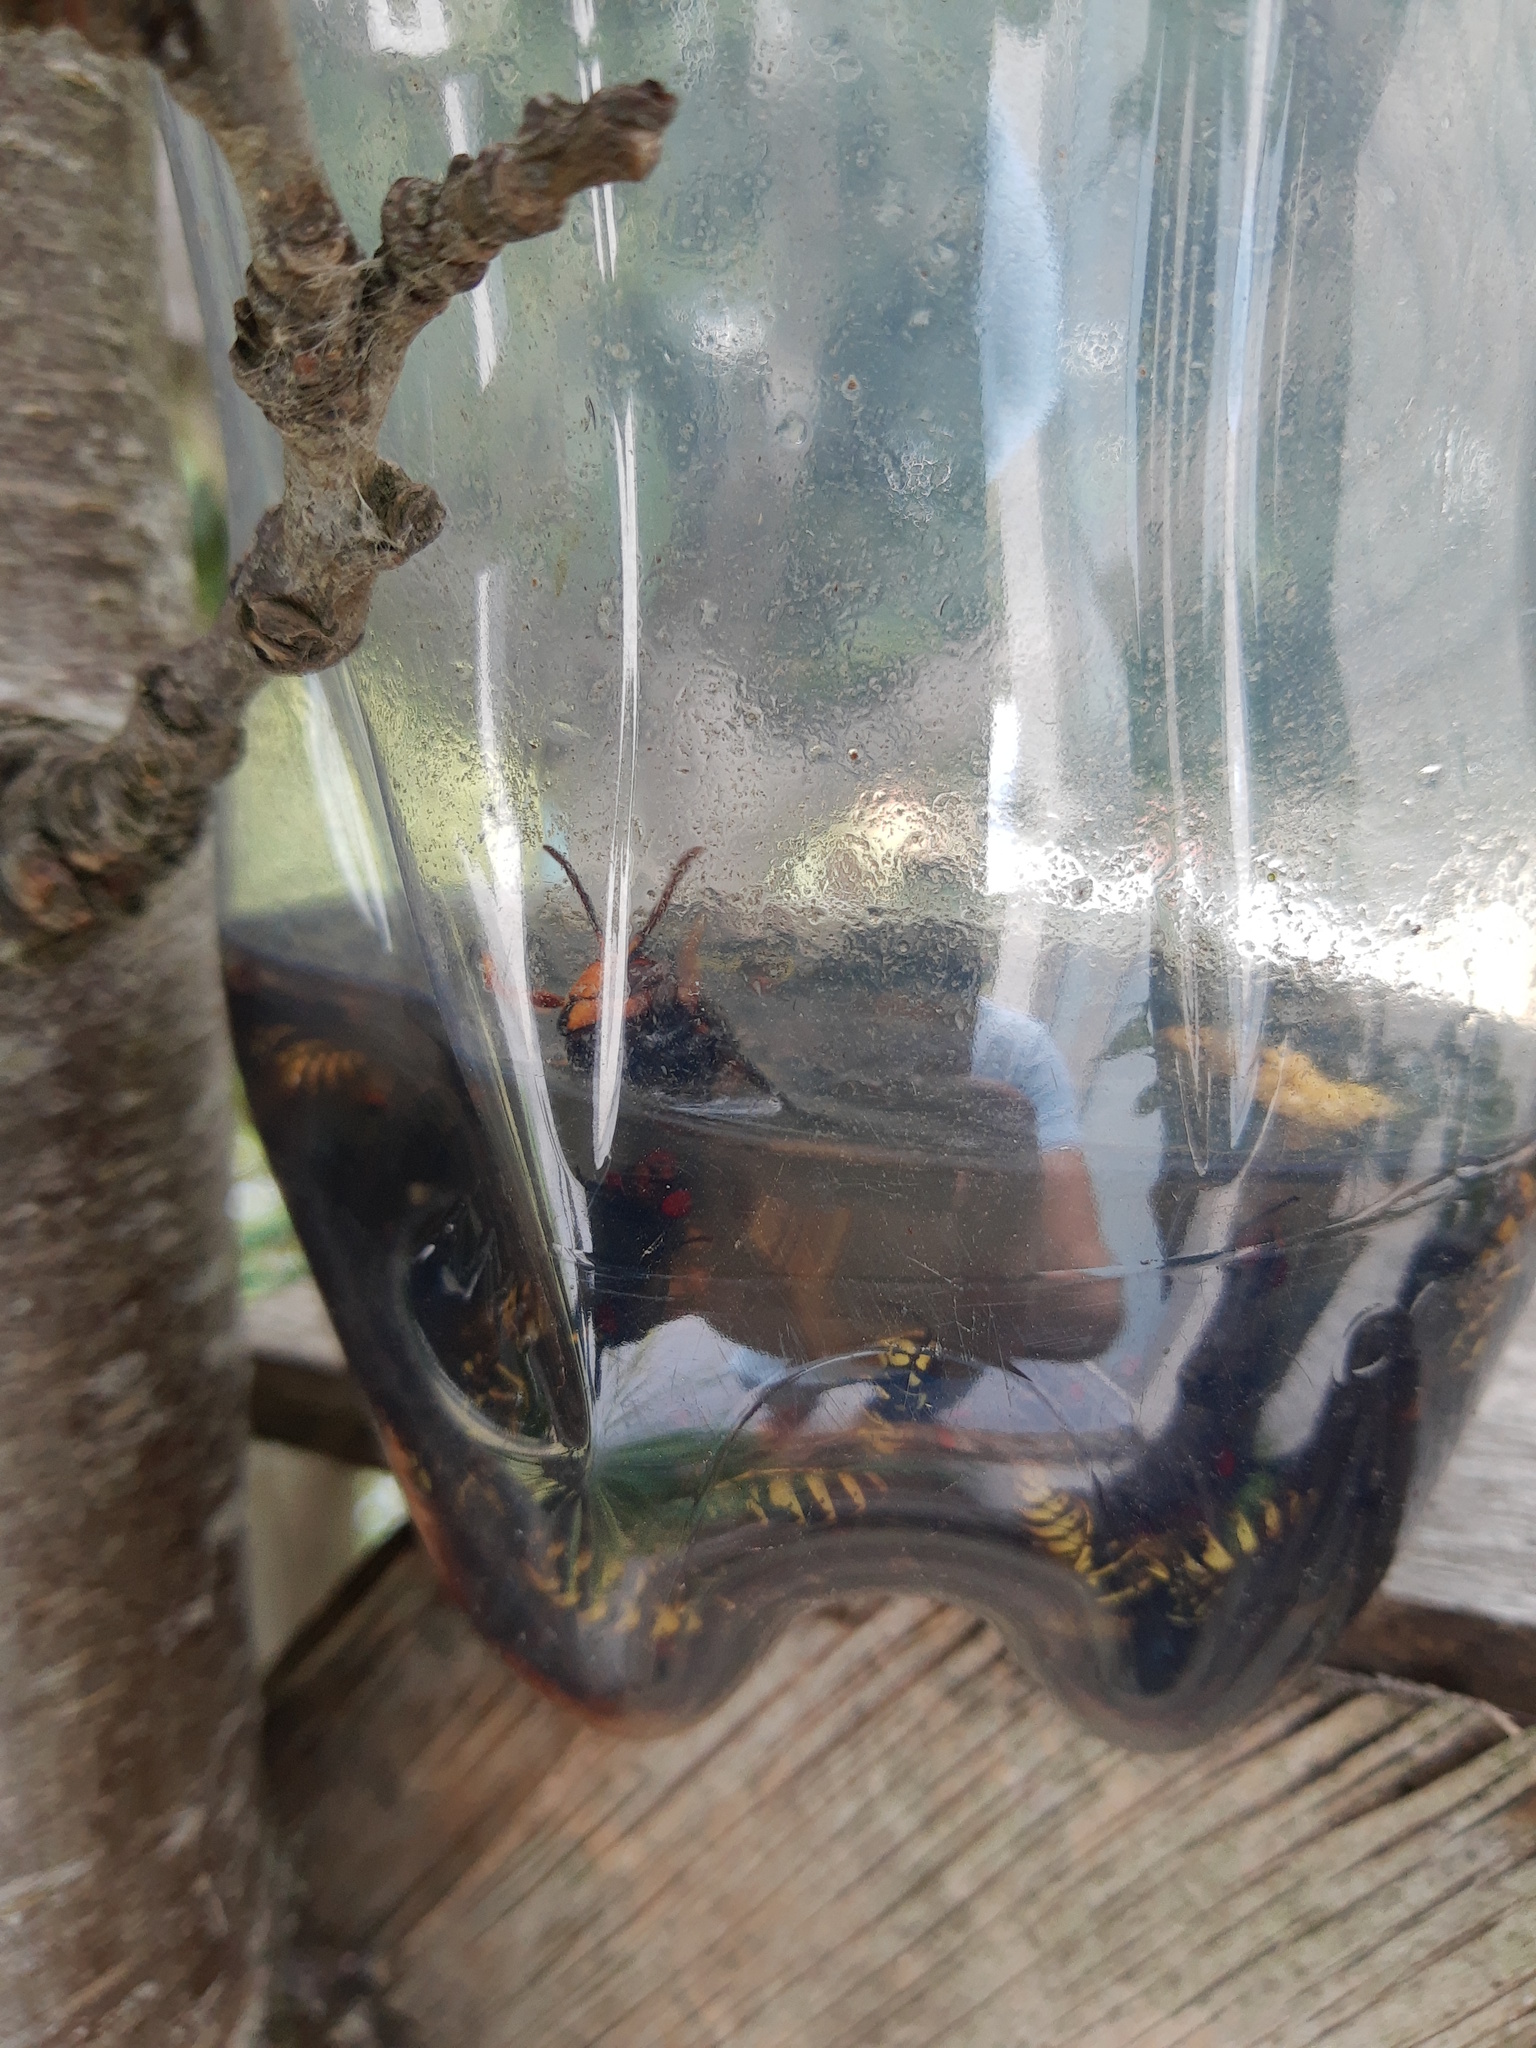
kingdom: Animalia
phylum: Arthropoda
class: Insecta
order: Hymenoptera
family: Vespidae
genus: Vespa
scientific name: Vespa velutina
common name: Asian hornet
